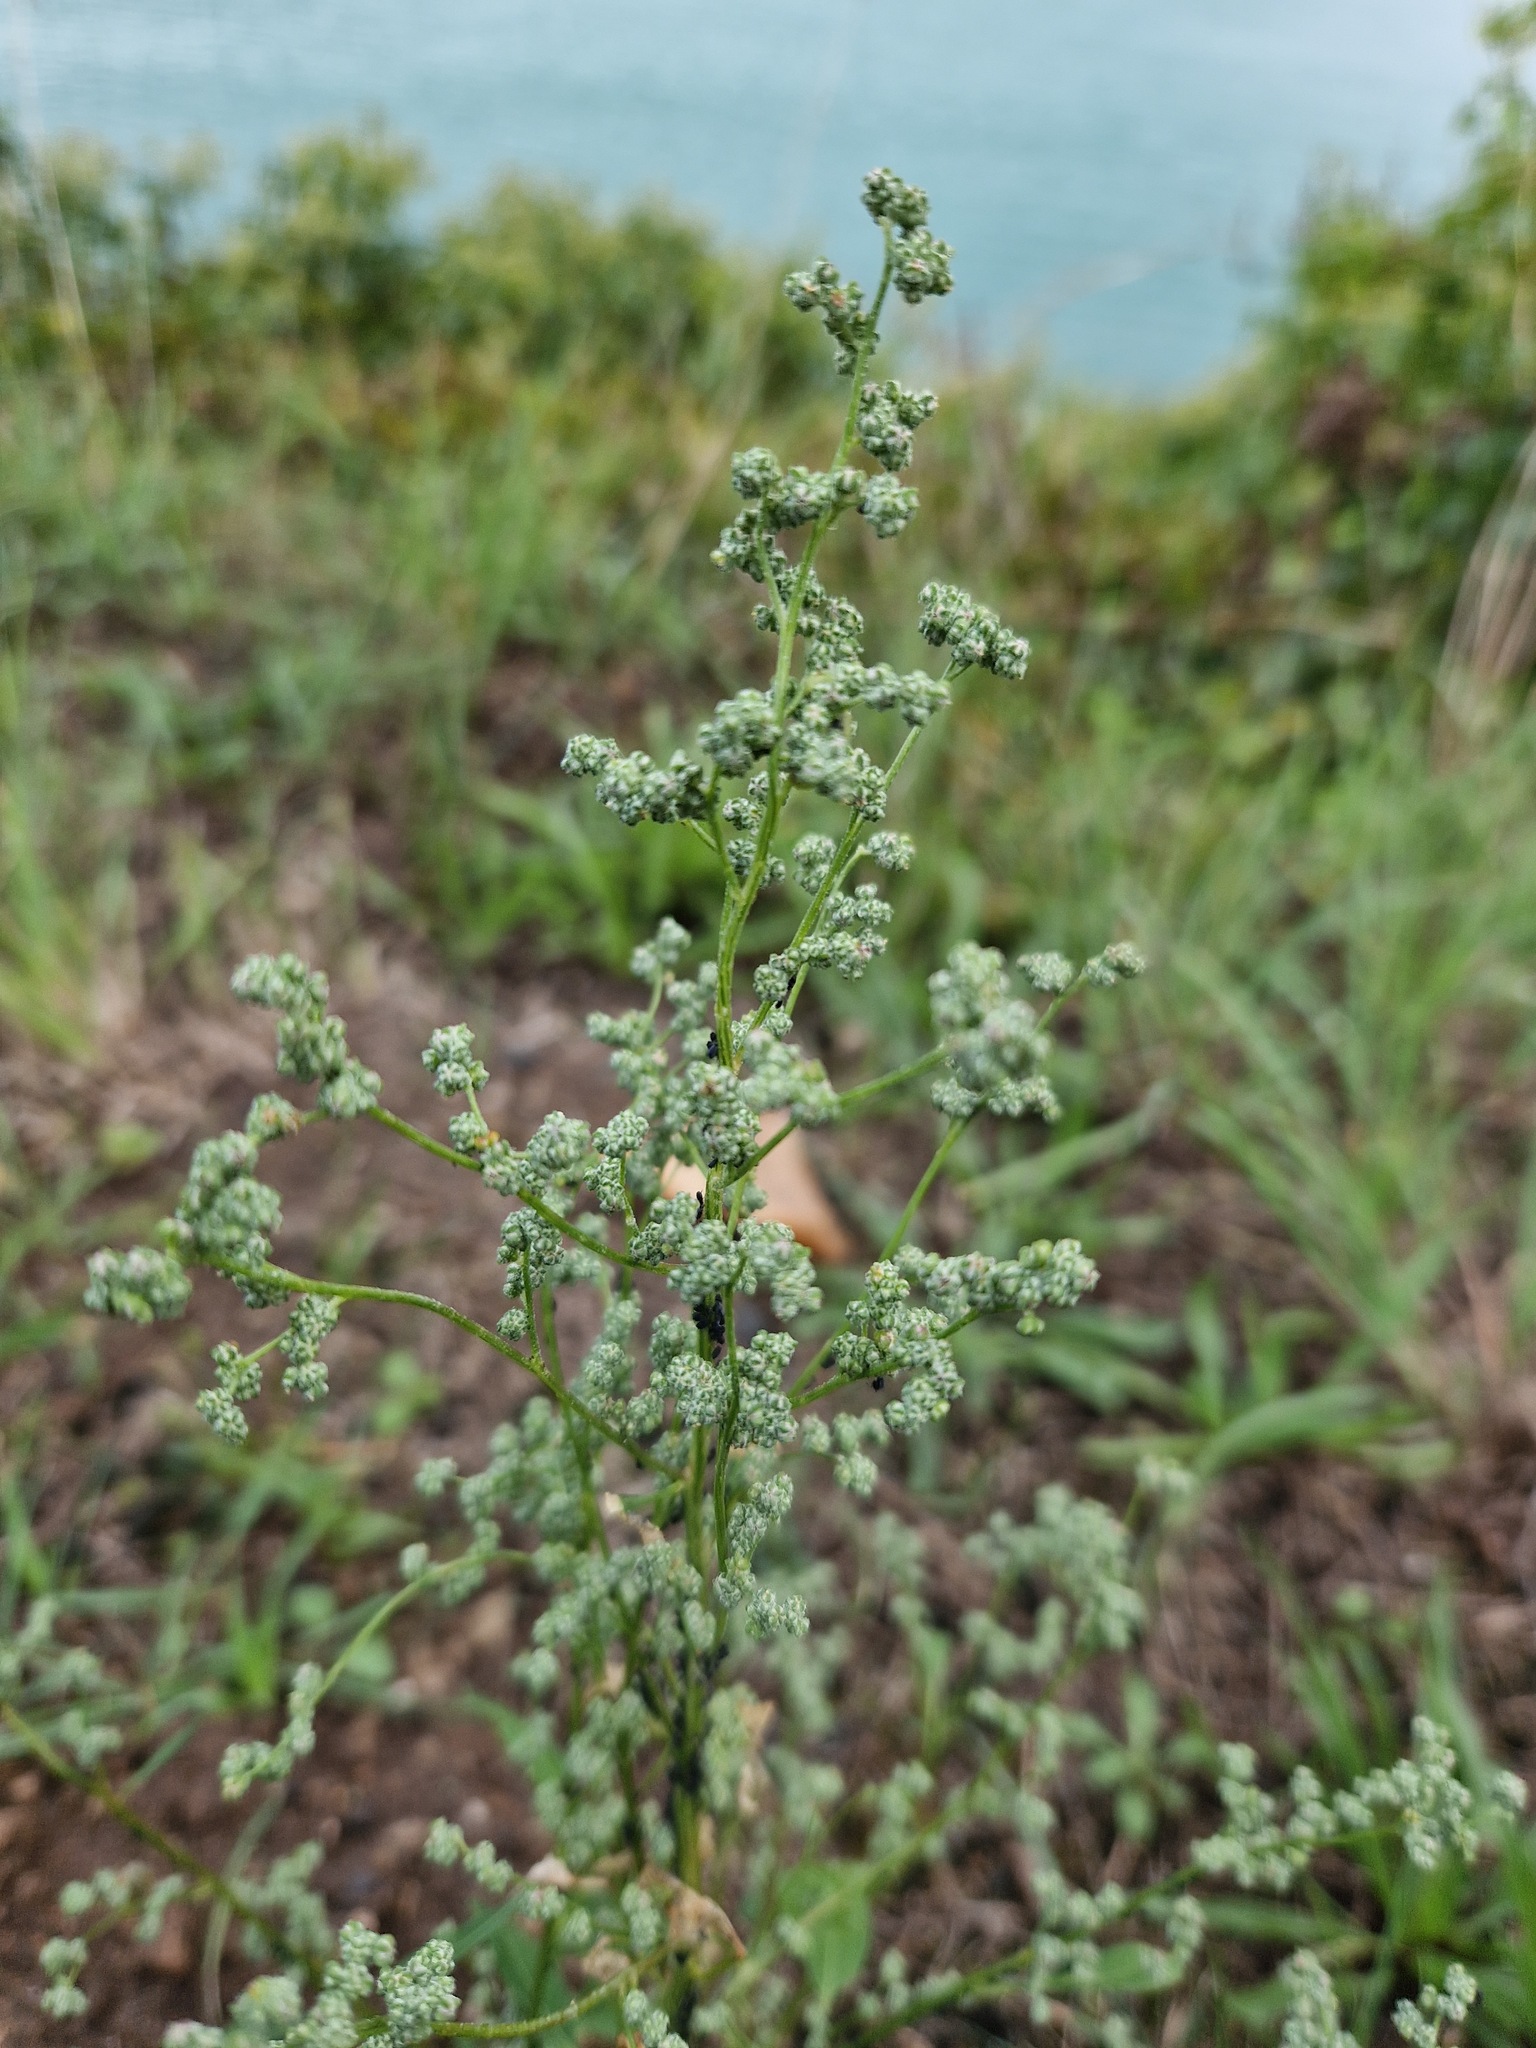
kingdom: Plantae
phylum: Tracheophyta
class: Magnoliopsida
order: Caryophyllales
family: Amaranthaceae
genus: Chenopodium
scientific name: Chenopodium album
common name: Fat-hen
